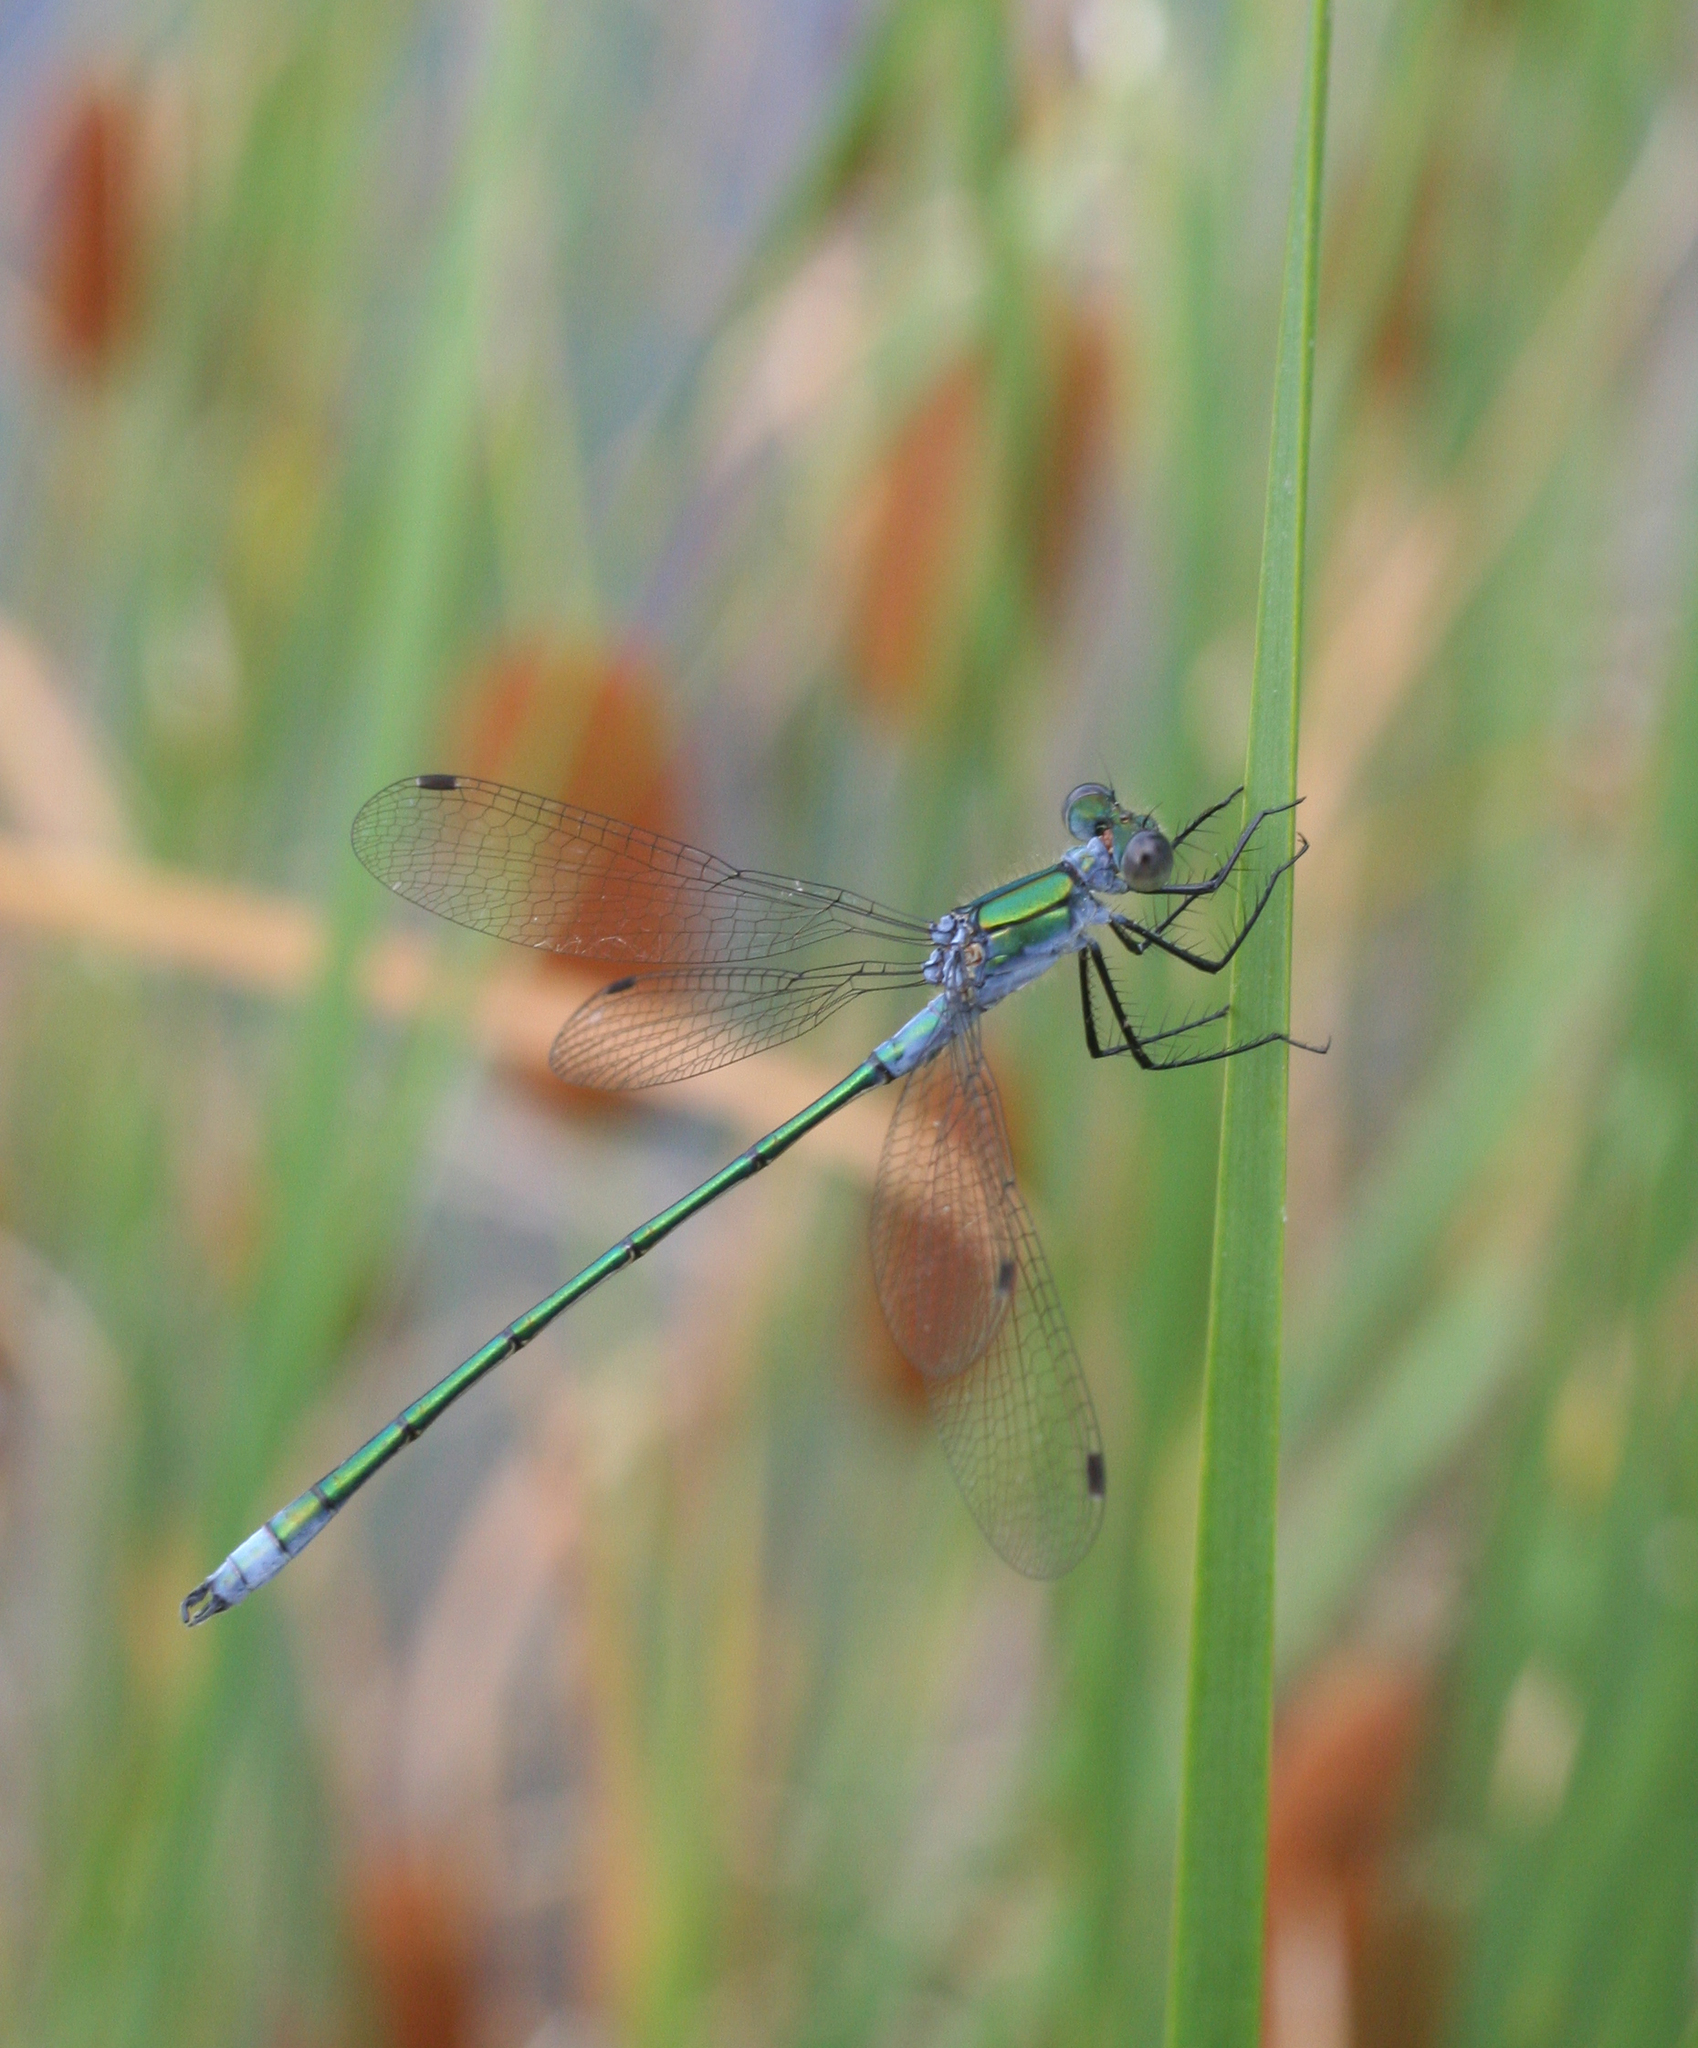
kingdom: Animalia
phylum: Arthropoda
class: Insecta
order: Odonata
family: Lestidae
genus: Lestes
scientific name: Lestes sponsa
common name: Common spreadwing
